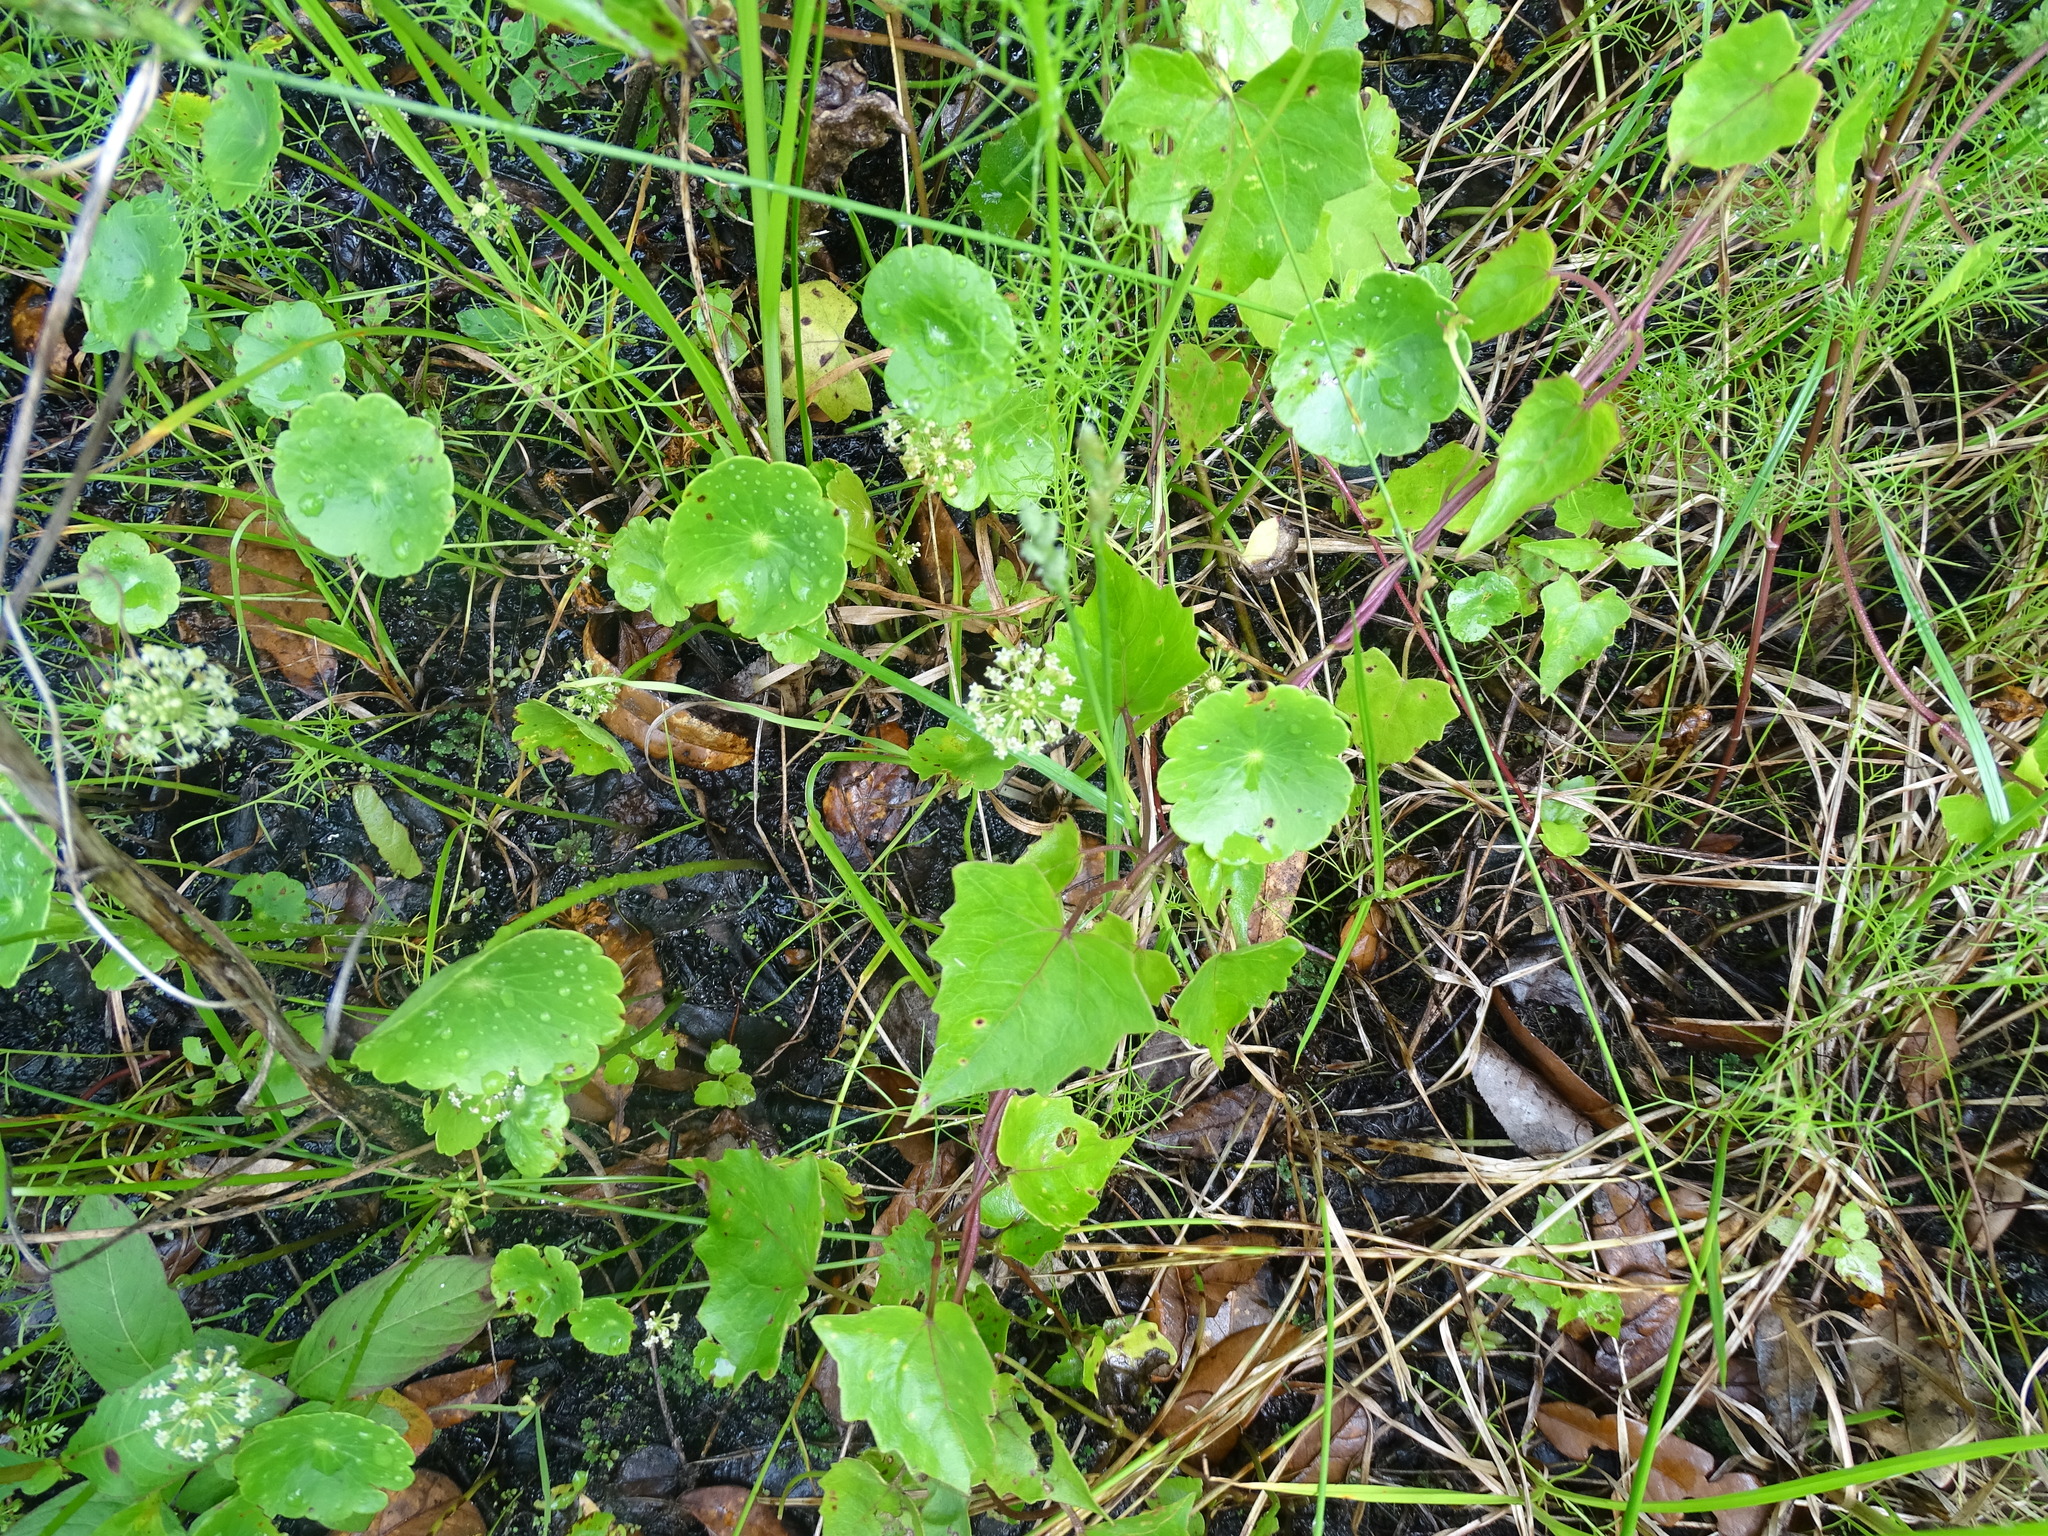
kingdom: Plantae
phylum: Tracheophyta
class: Magnoliopsida
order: Apiales
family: Araliaceae
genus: Hydrocotyle
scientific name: Hydrocotyle umbellata
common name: Water pennywort
